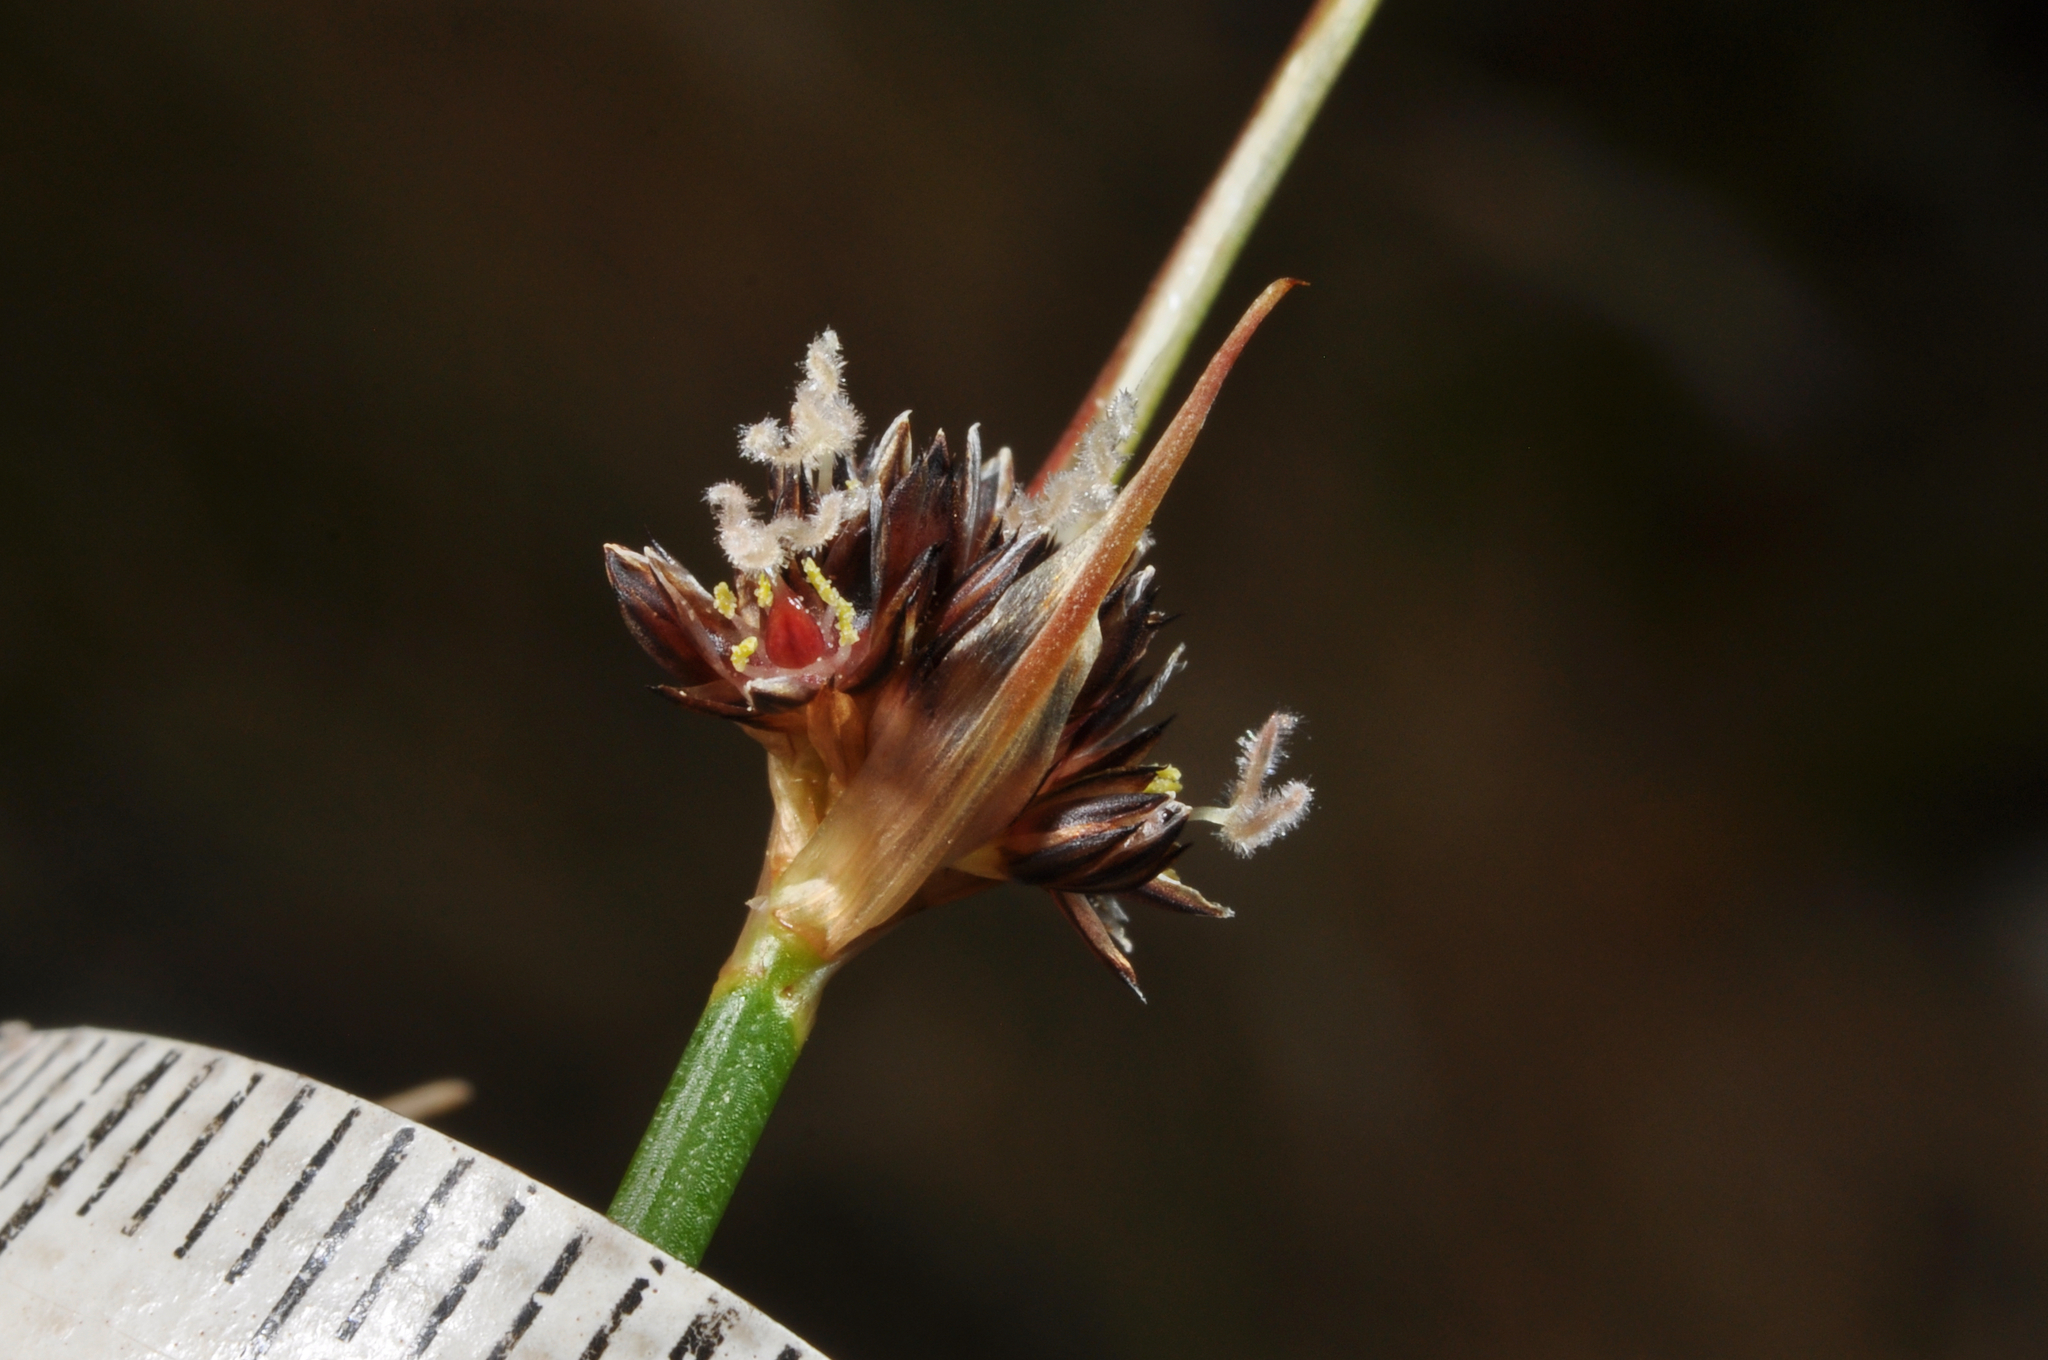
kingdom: Plantae
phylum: Tracheophyta
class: Liliopsida
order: Poales
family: Juncaceae
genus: Juncus
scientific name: Juncus caespiticius
